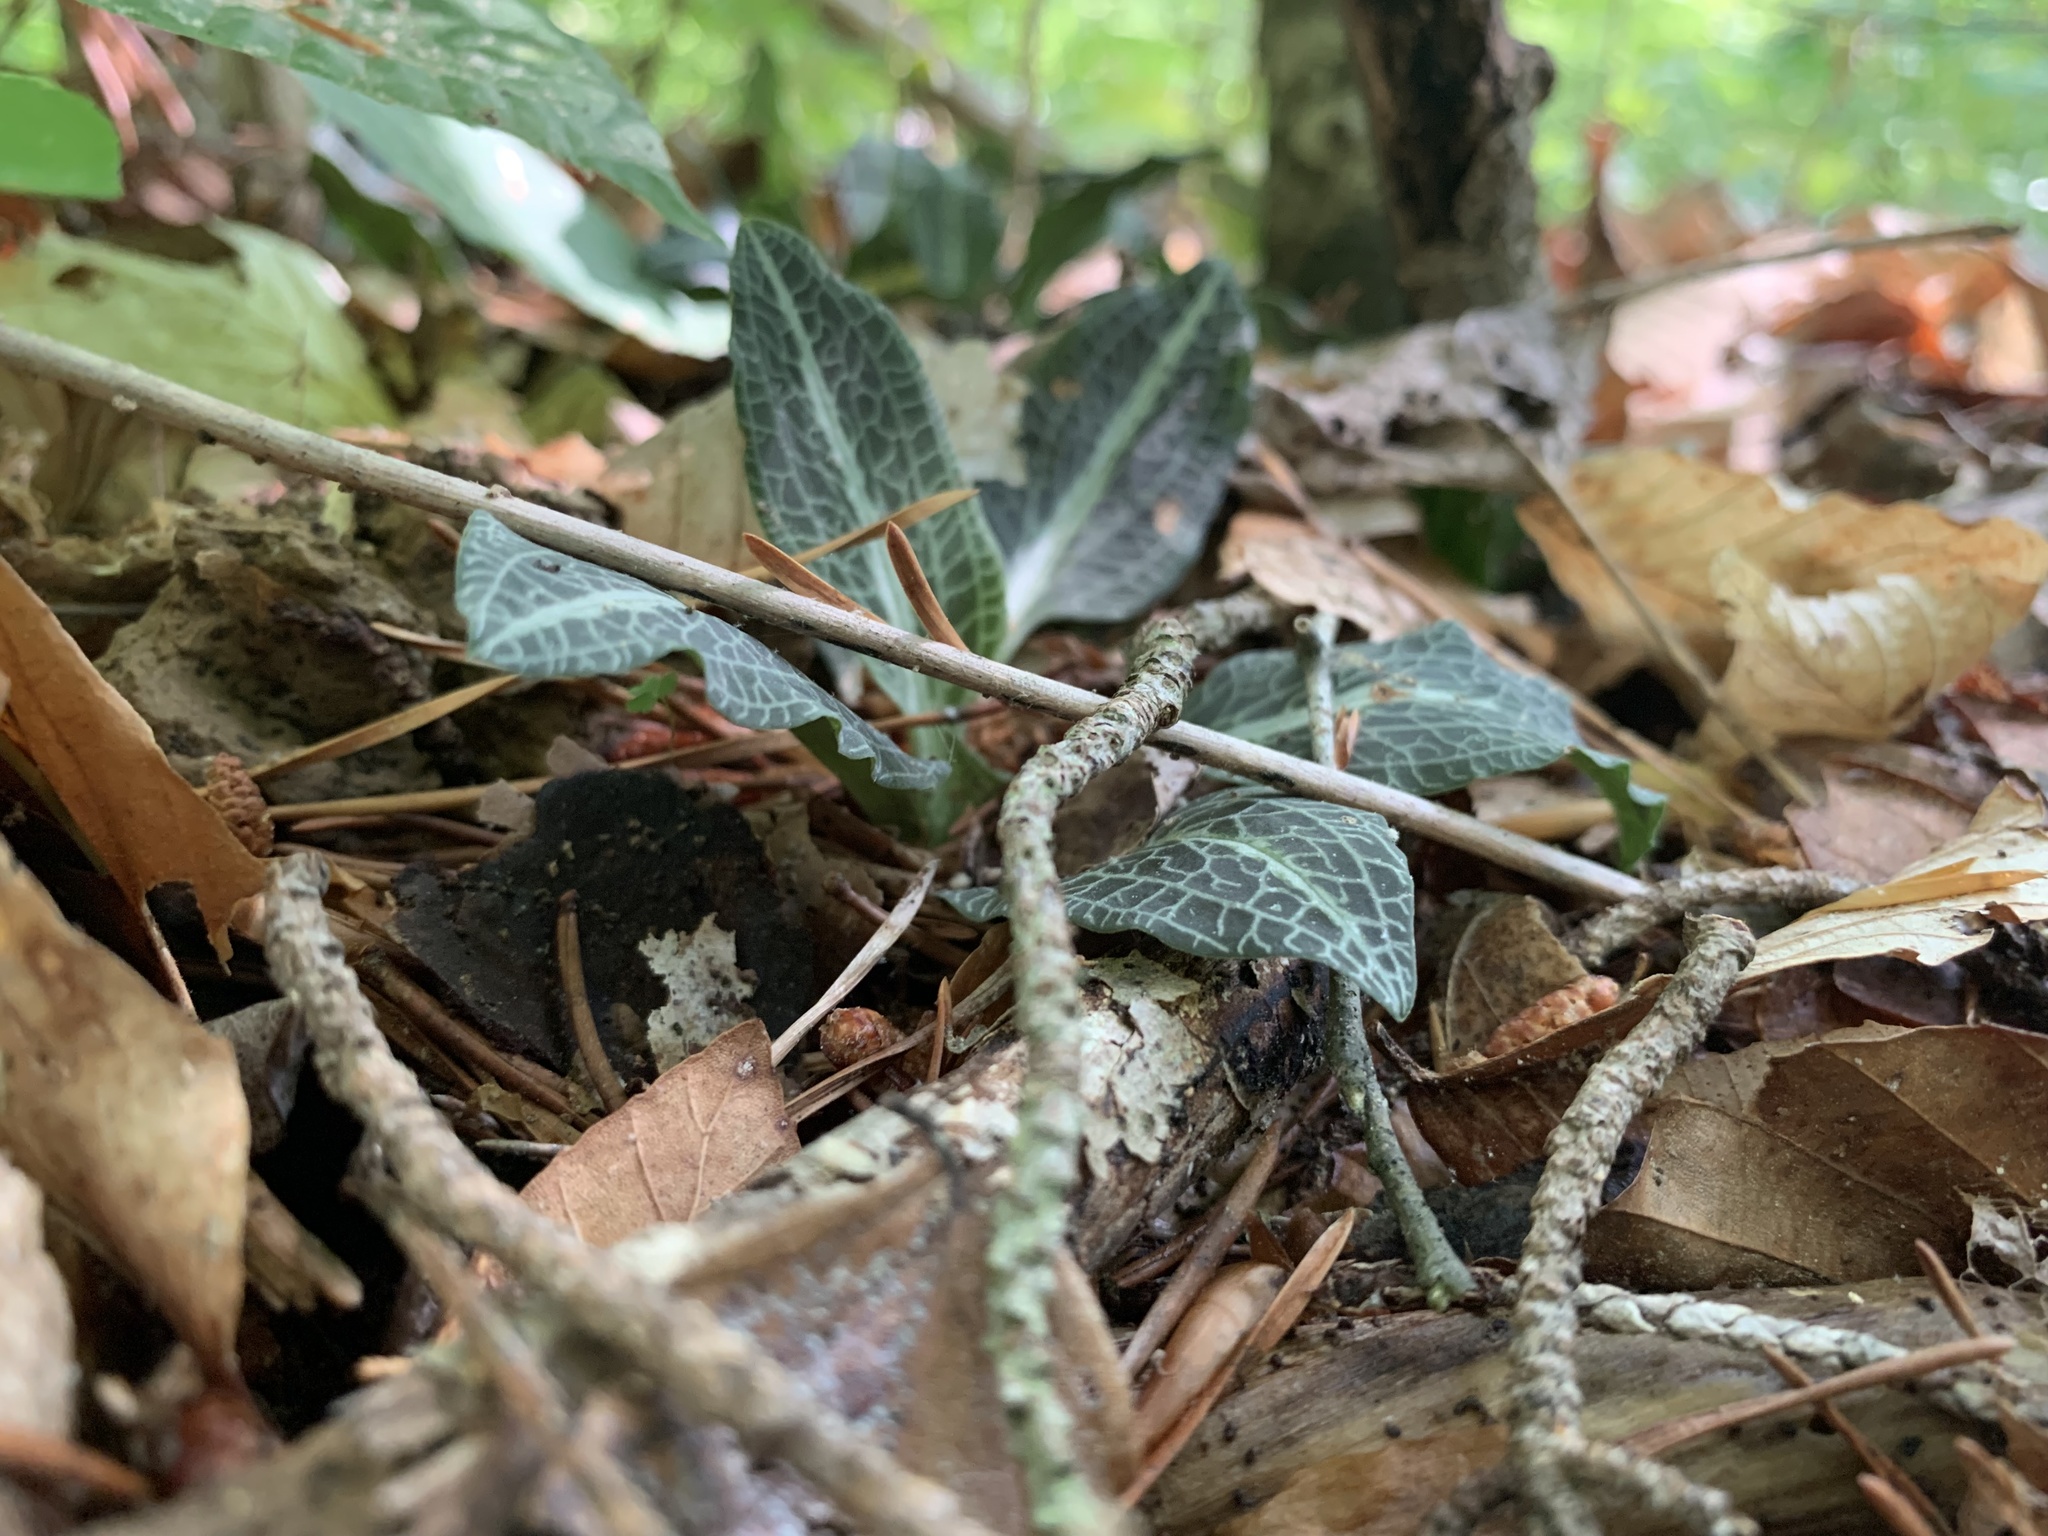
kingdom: Plantae
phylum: Tracheophyta
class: Liliopsida
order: Asparagales
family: Orchidaceae
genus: Goodyera
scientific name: Goodyera pubescens
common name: Downy rattlesnake-plantain
